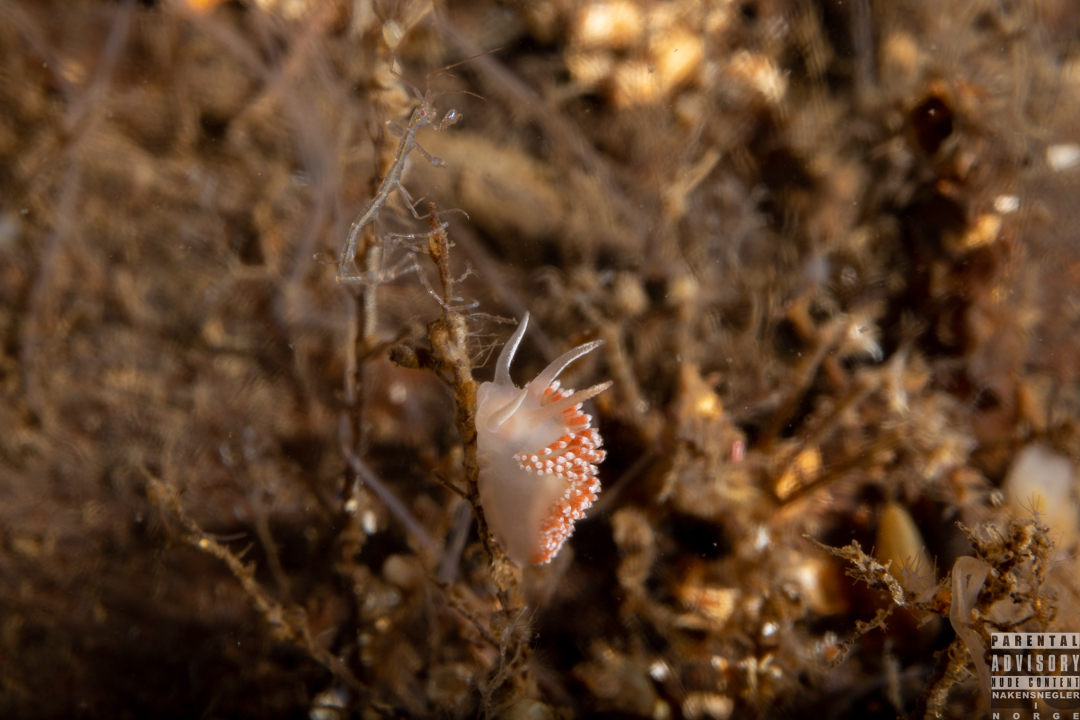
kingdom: Animalia
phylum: Mollusca
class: Gastropoda
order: Nudibranchia
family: Coryphellidae
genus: Coryphella
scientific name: Coryphella verrucosa
